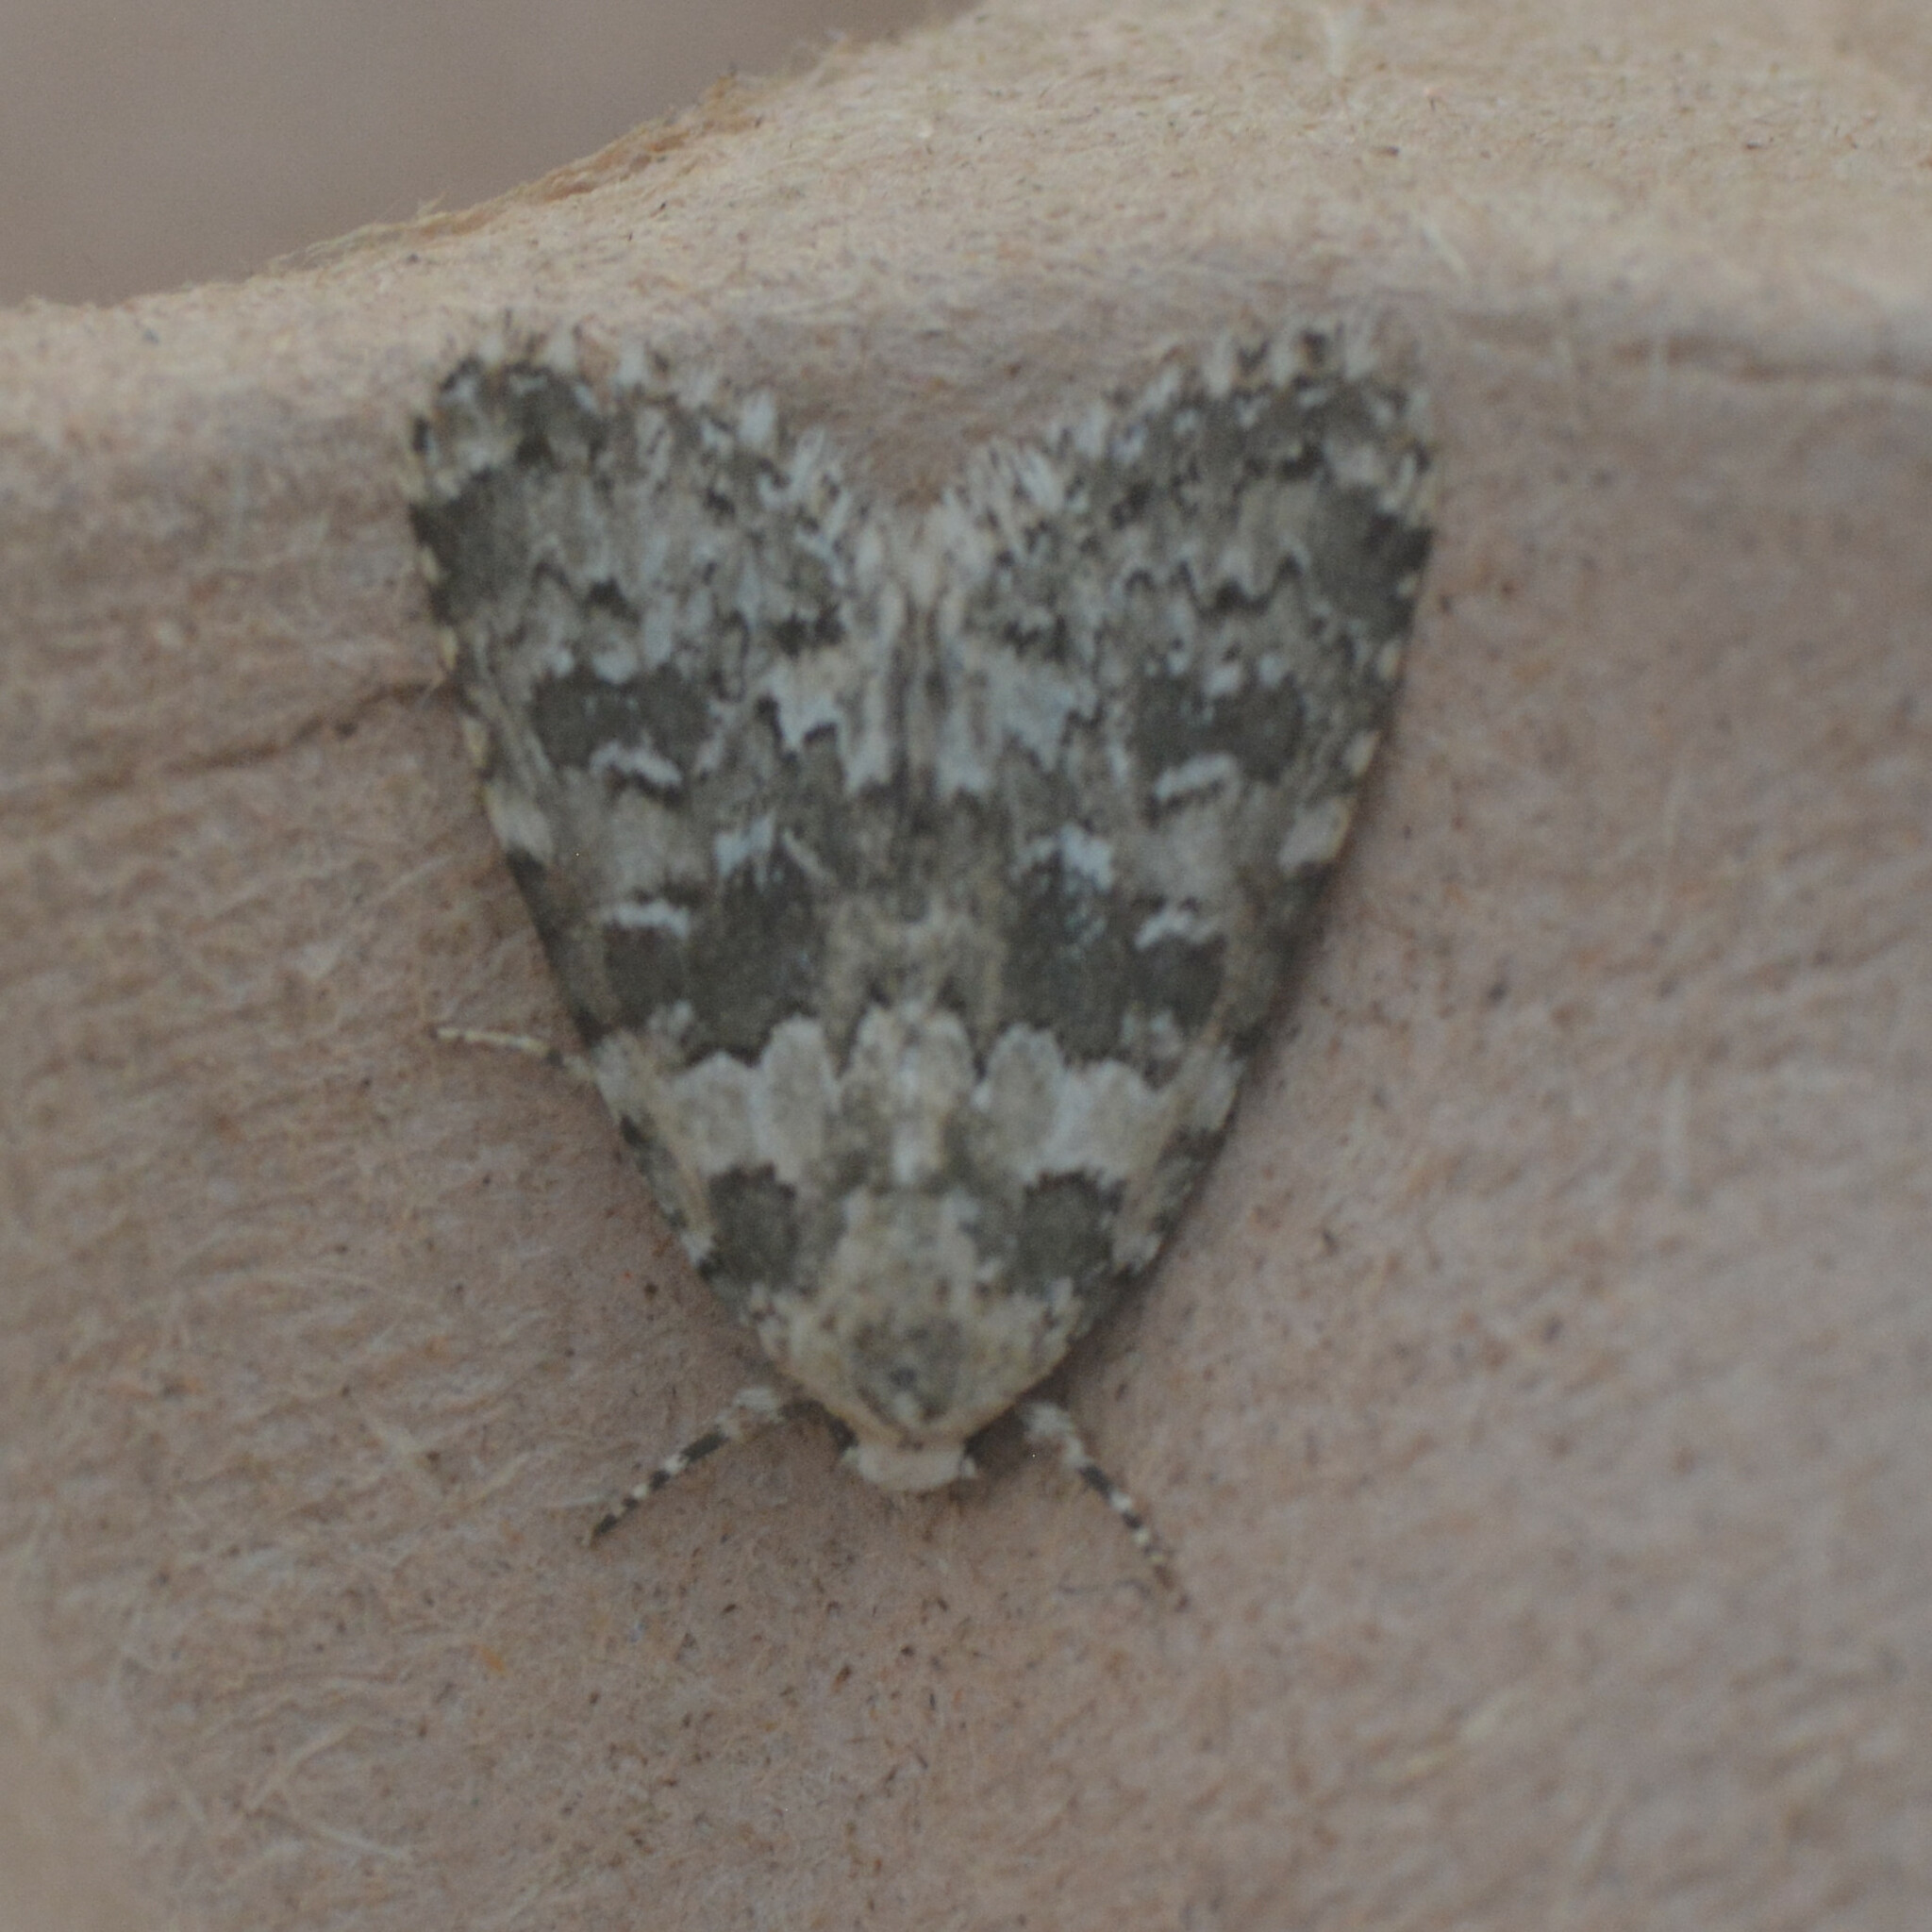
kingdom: Animalia
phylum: Arthropoda
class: Insecta
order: Lepidoptera
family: Noctuidae
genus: Bryophila
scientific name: Bryophila domestica
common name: Marbled beauty
